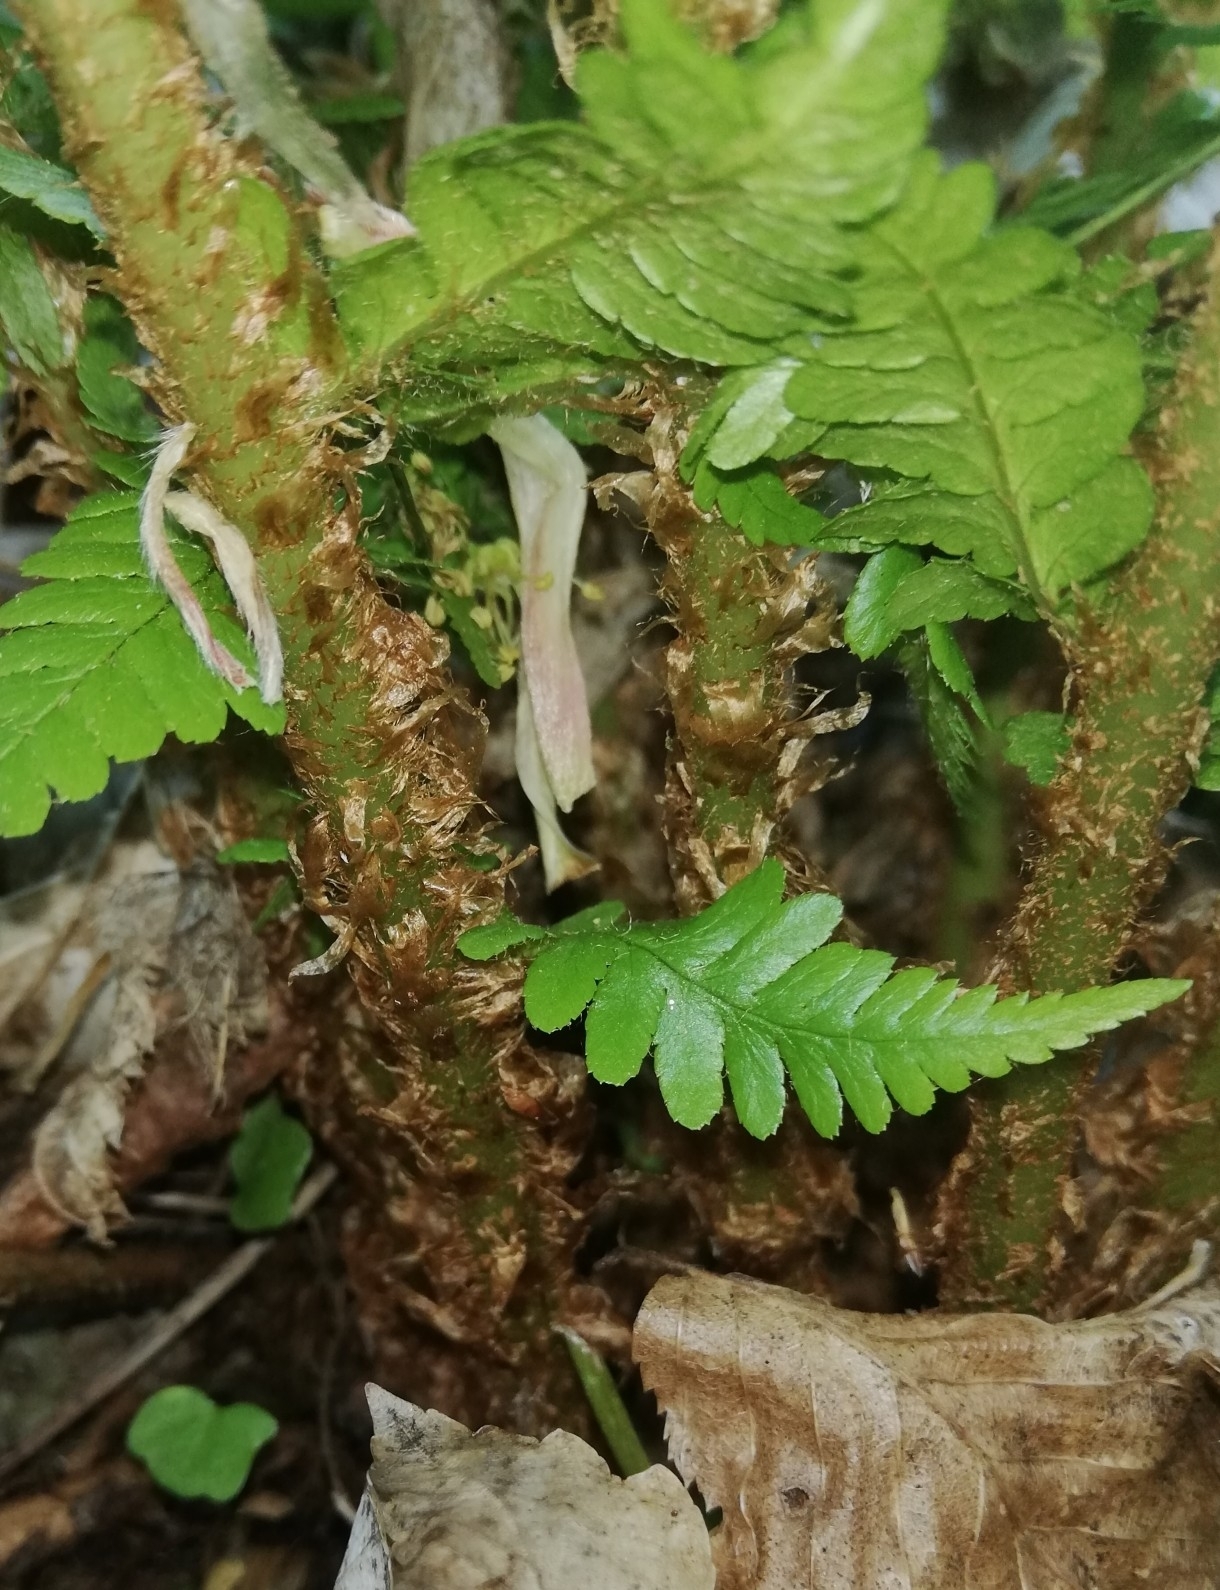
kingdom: Plantae
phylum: Tracheophyta
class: Polypodiopsida
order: Polypodiales
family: Dryopteridaceae
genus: Dryopteris
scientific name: Dryopteris filix-mas
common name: Male fern
